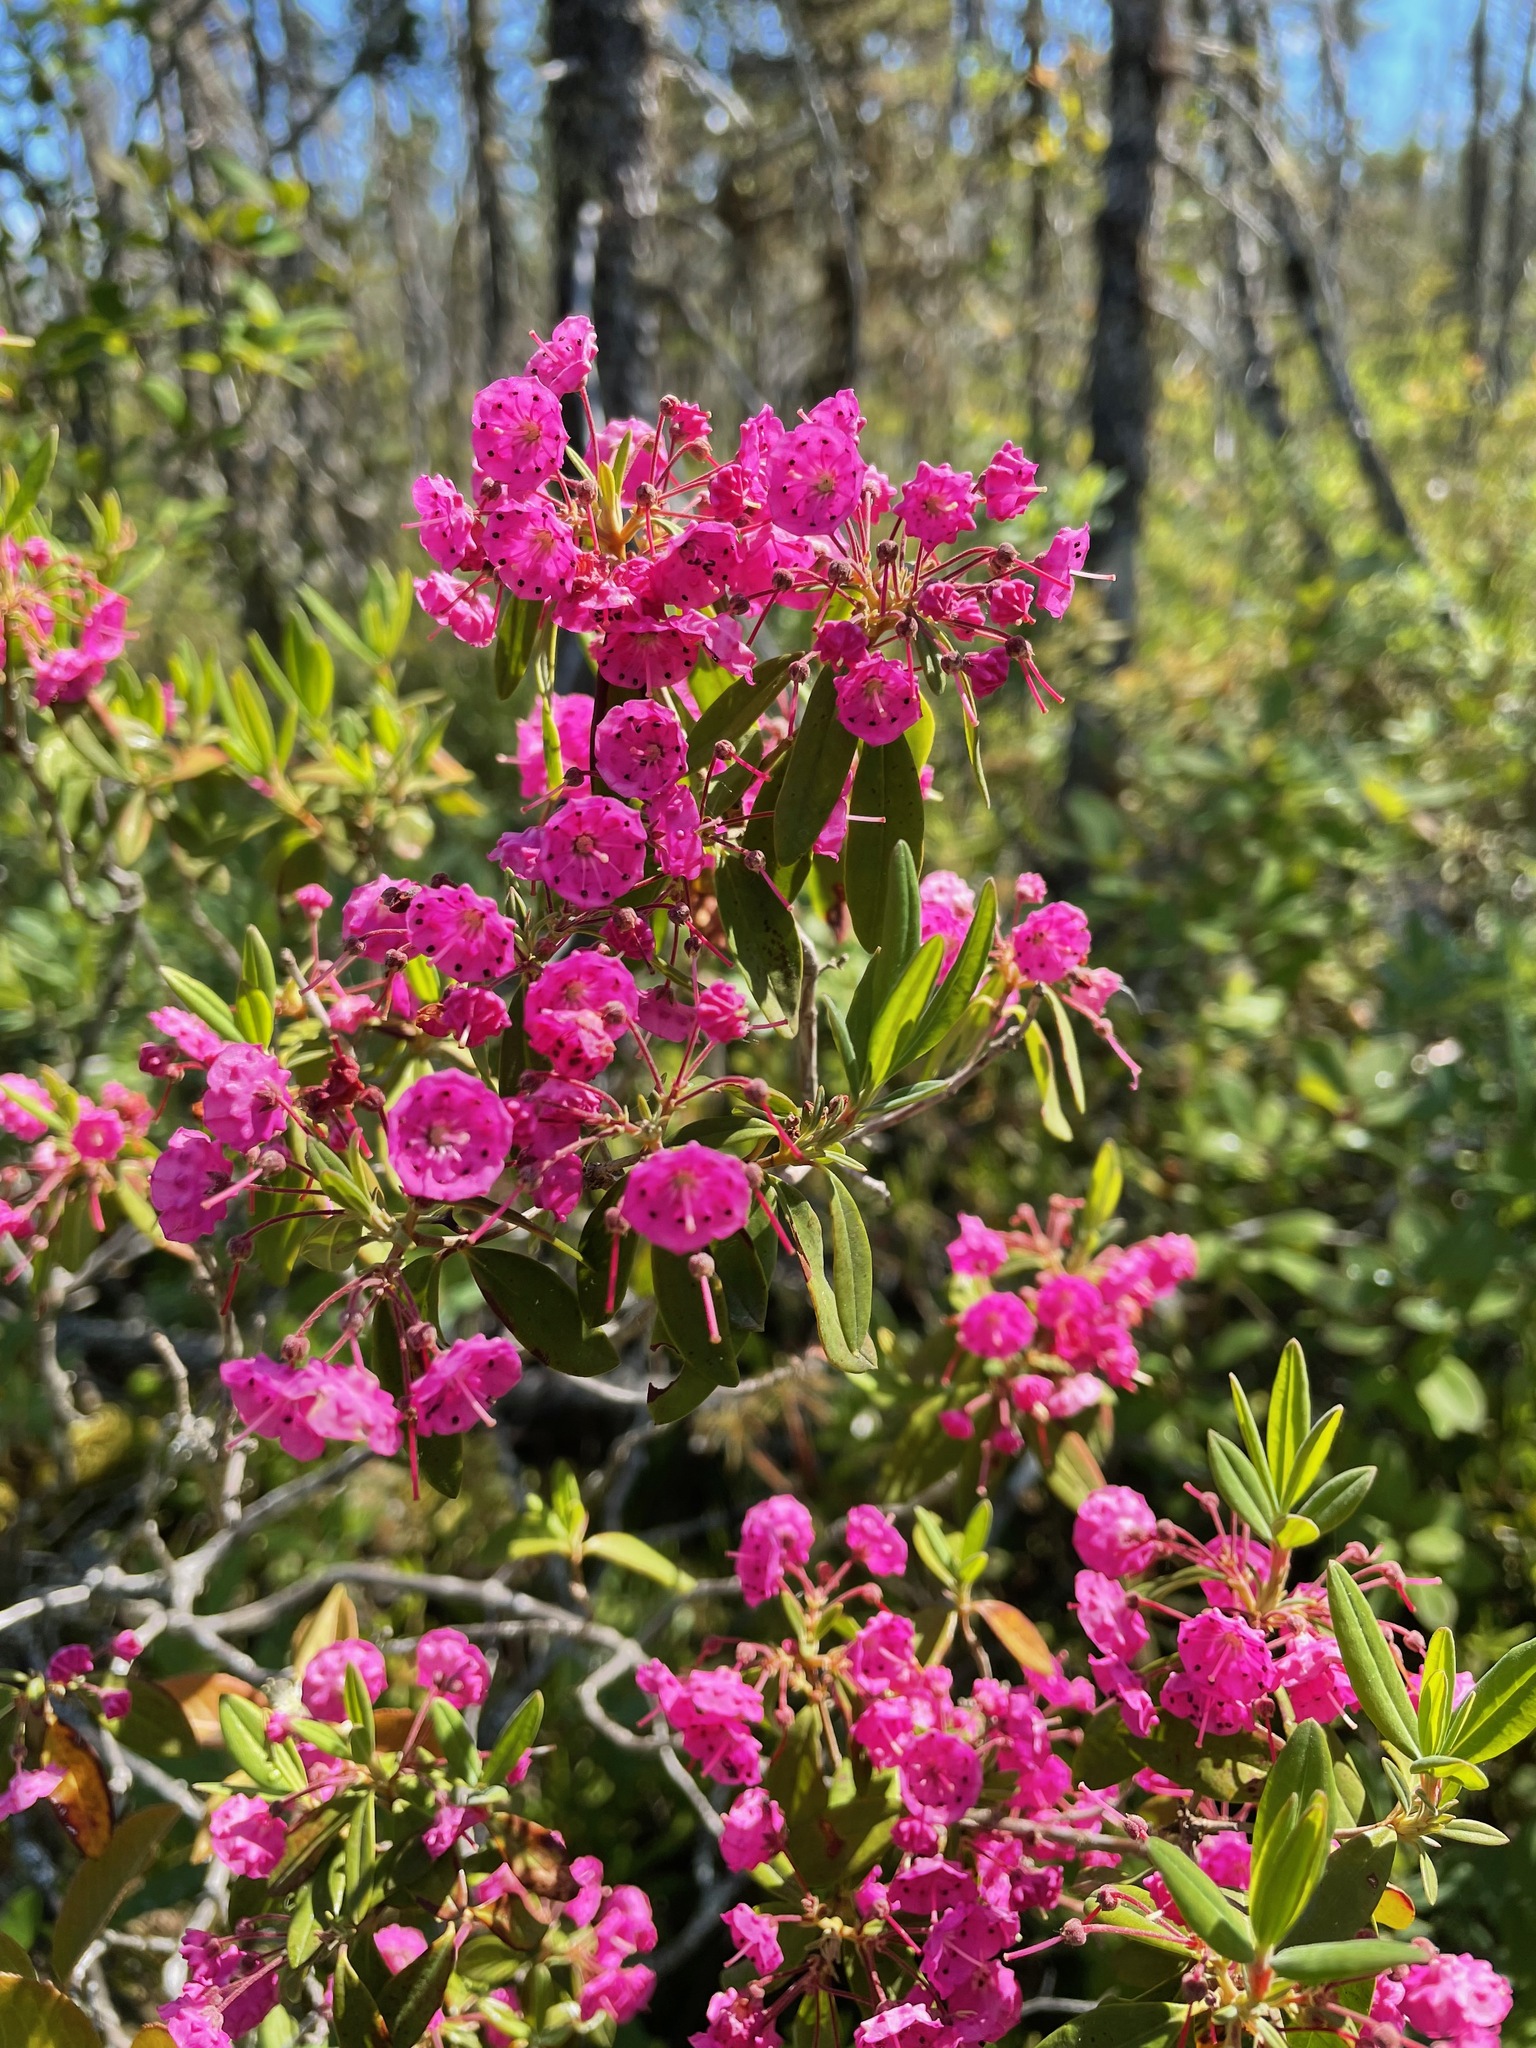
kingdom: Plantae
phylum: Tracheophyta
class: Magnoliopsida
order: Ericales
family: Ericaceae
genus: Kalmia
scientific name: Kalmia angustifolia
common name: Sheep-laurel
